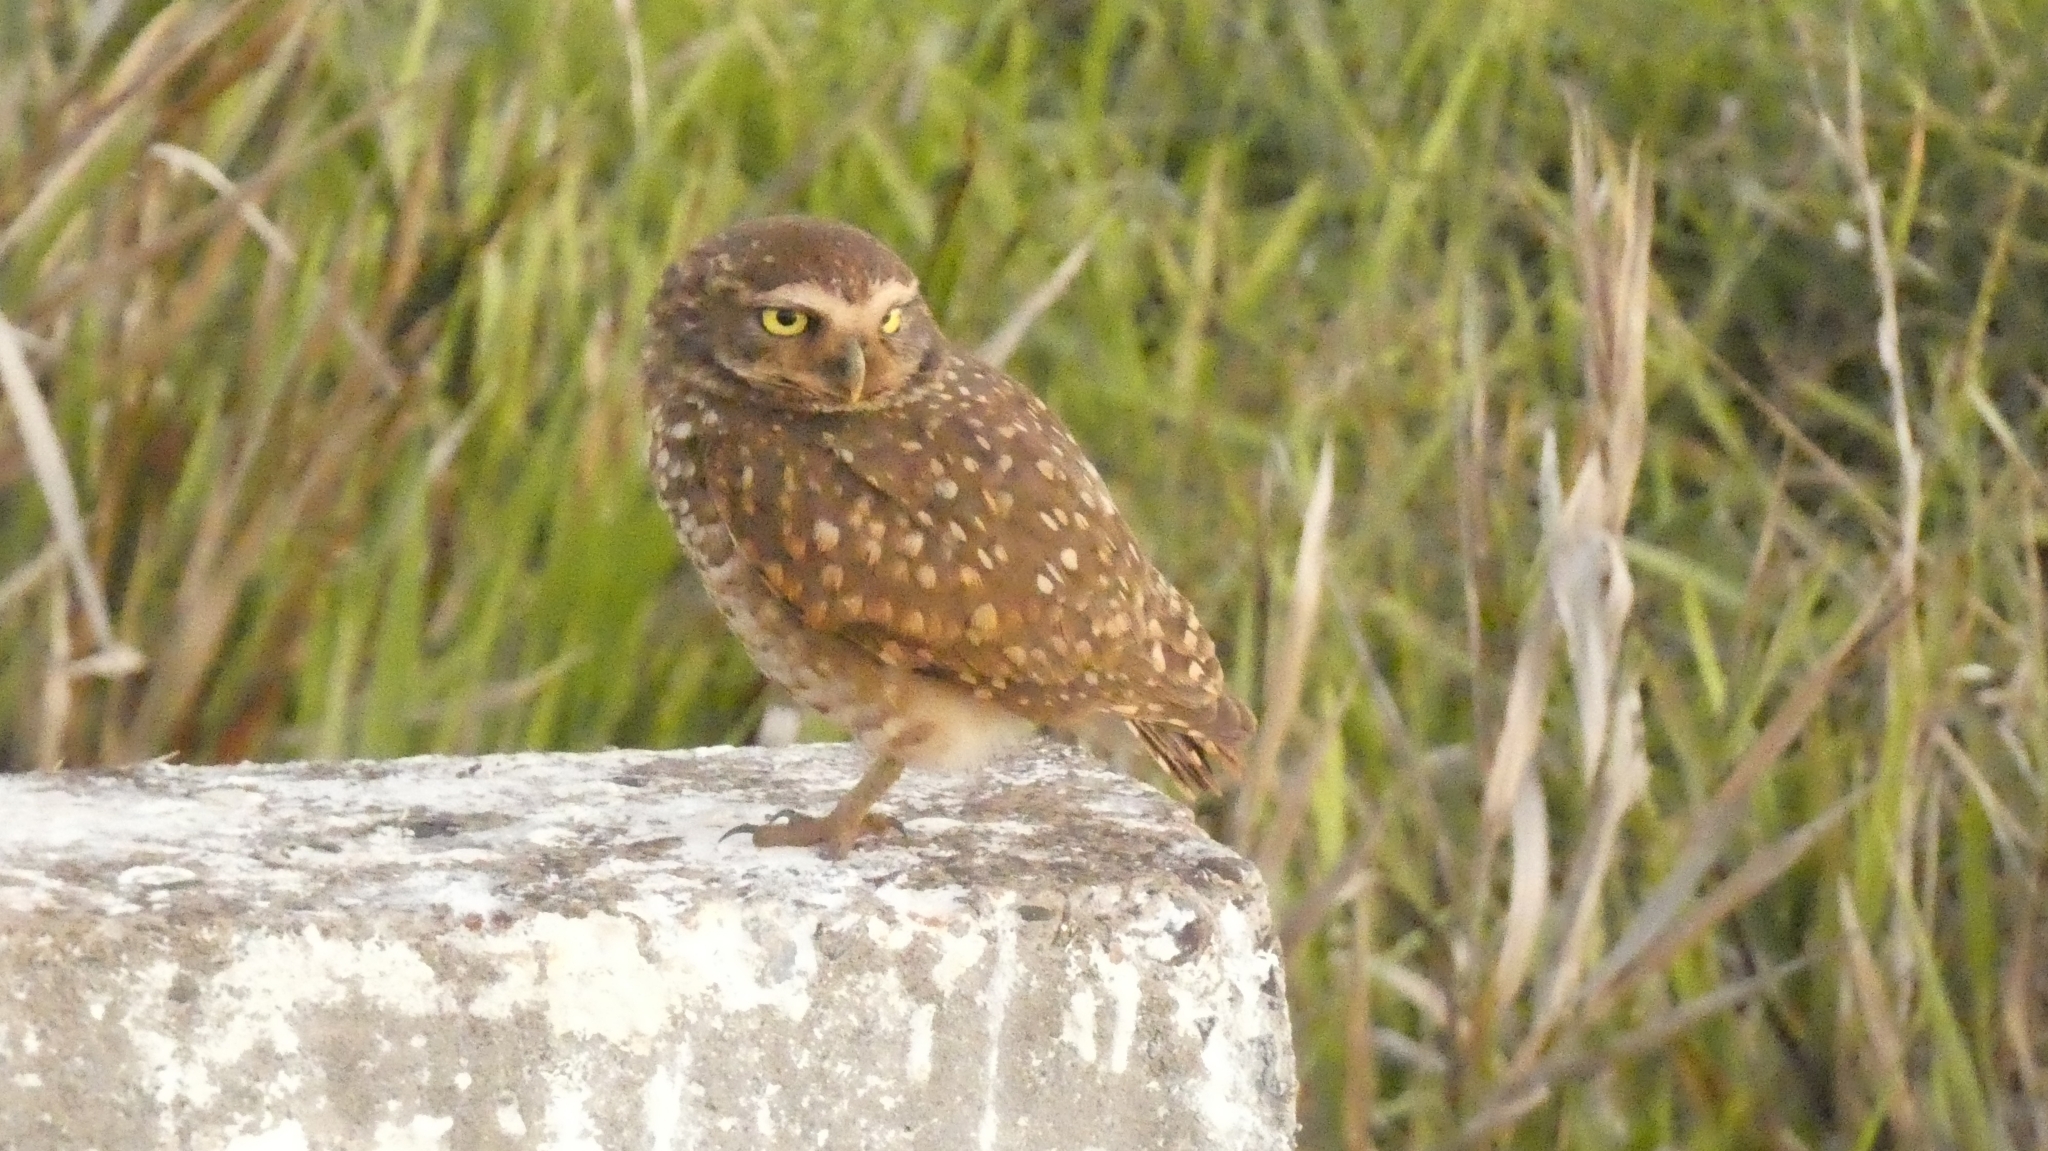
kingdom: Animalia
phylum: Chordata
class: Aves
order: Strigiformes
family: Strigidae
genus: Athene
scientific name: Athene cunicularia
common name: Burrowing owl
